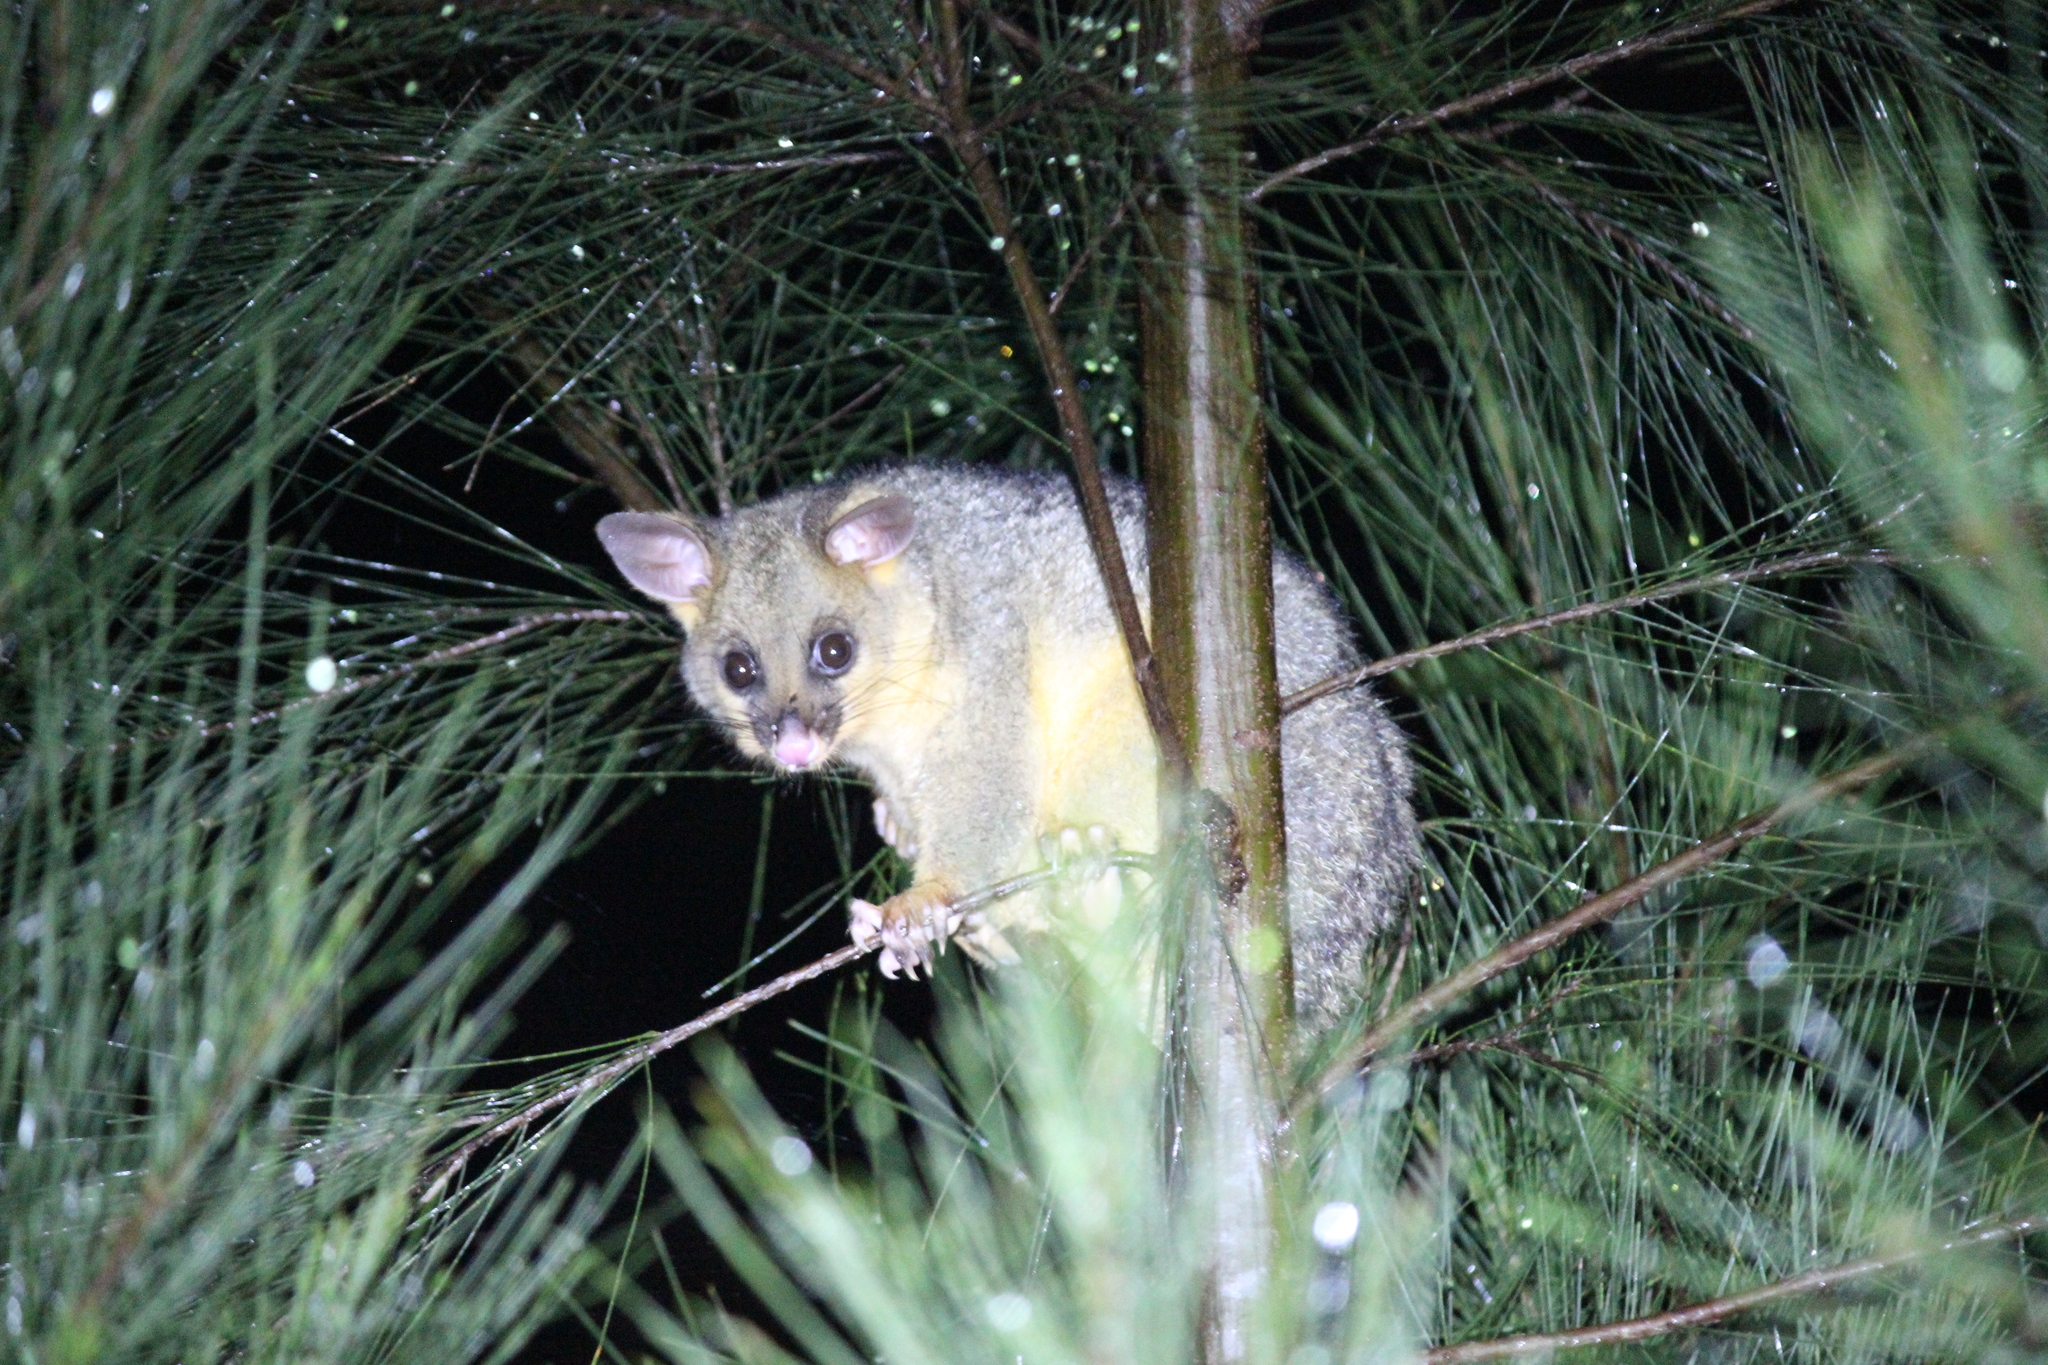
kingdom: Animalia
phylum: Chordata
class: Mammalia
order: Diprotodontia
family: Phalangeridae
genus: Trichosurus
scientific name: Trichosurus vulpecula
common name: Common brushtail
